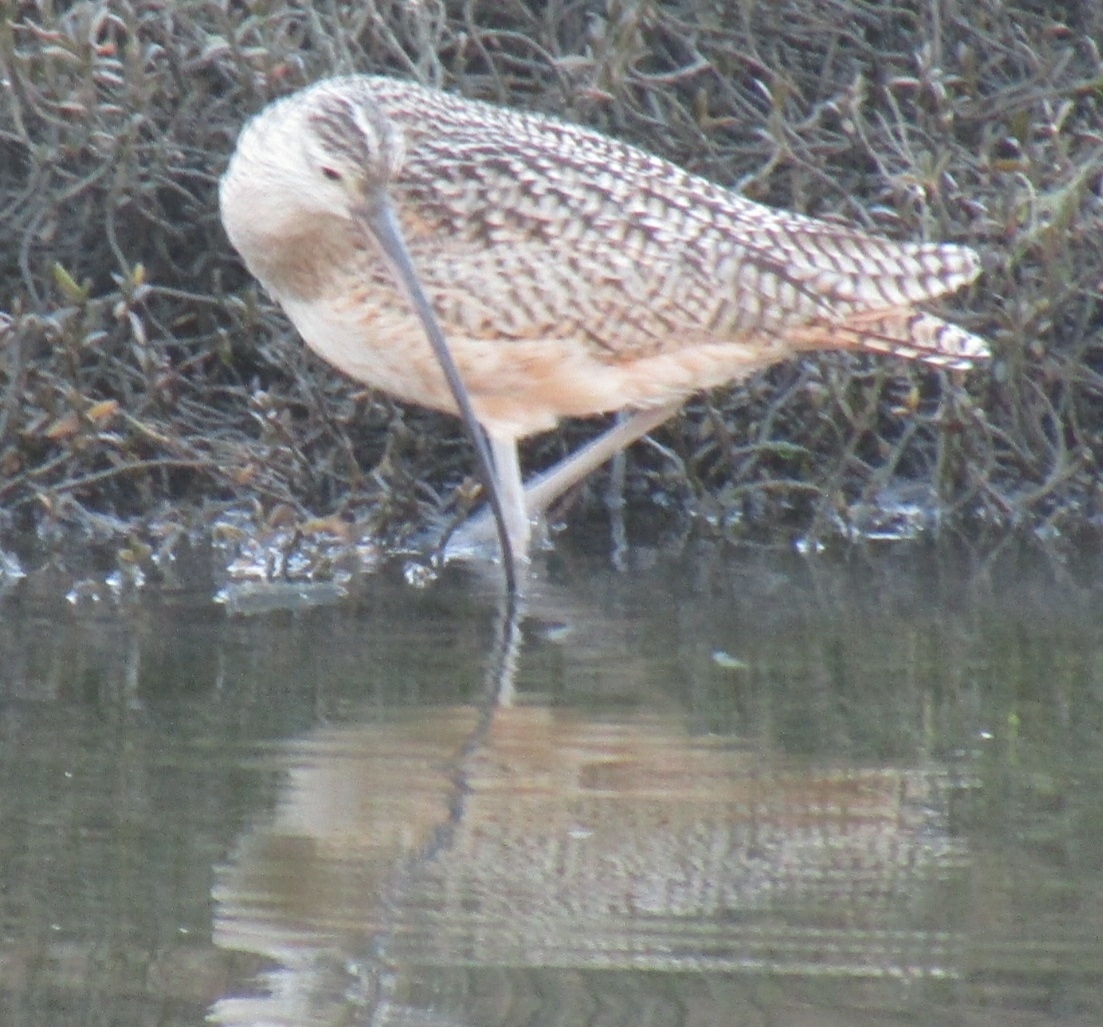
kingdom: Animalia
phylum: Chordata
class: Aves
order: Charadriiformes
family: Scolopacidae
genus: Numenius
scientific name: Numenius americanus
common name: Long-billed curlew
